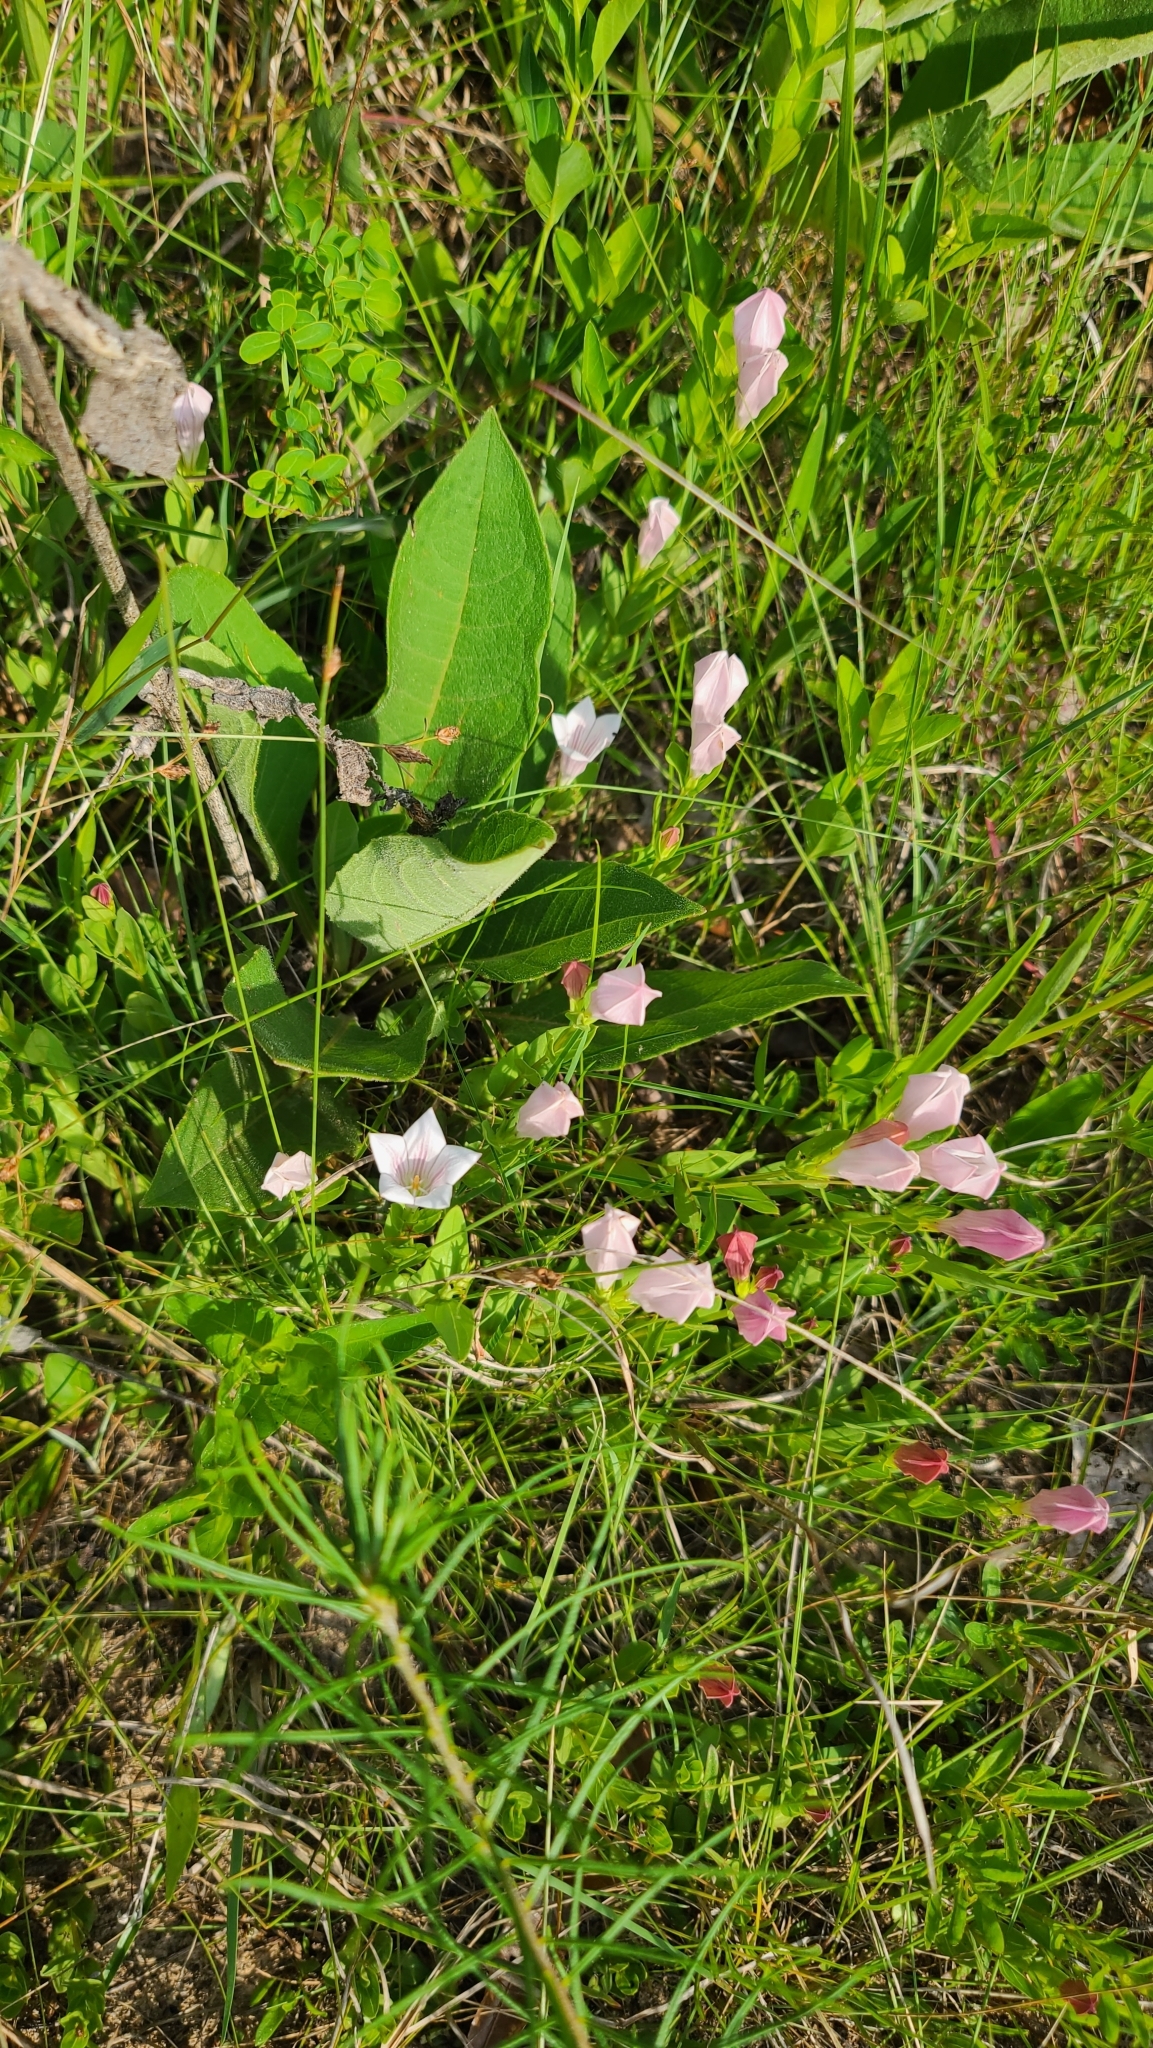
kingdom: Plantae
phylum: Tracheophyta
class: Magnoliopsida
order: Gentianales
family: Loganiaceae
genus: Spigelia
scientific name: Spigelia alabamensis
